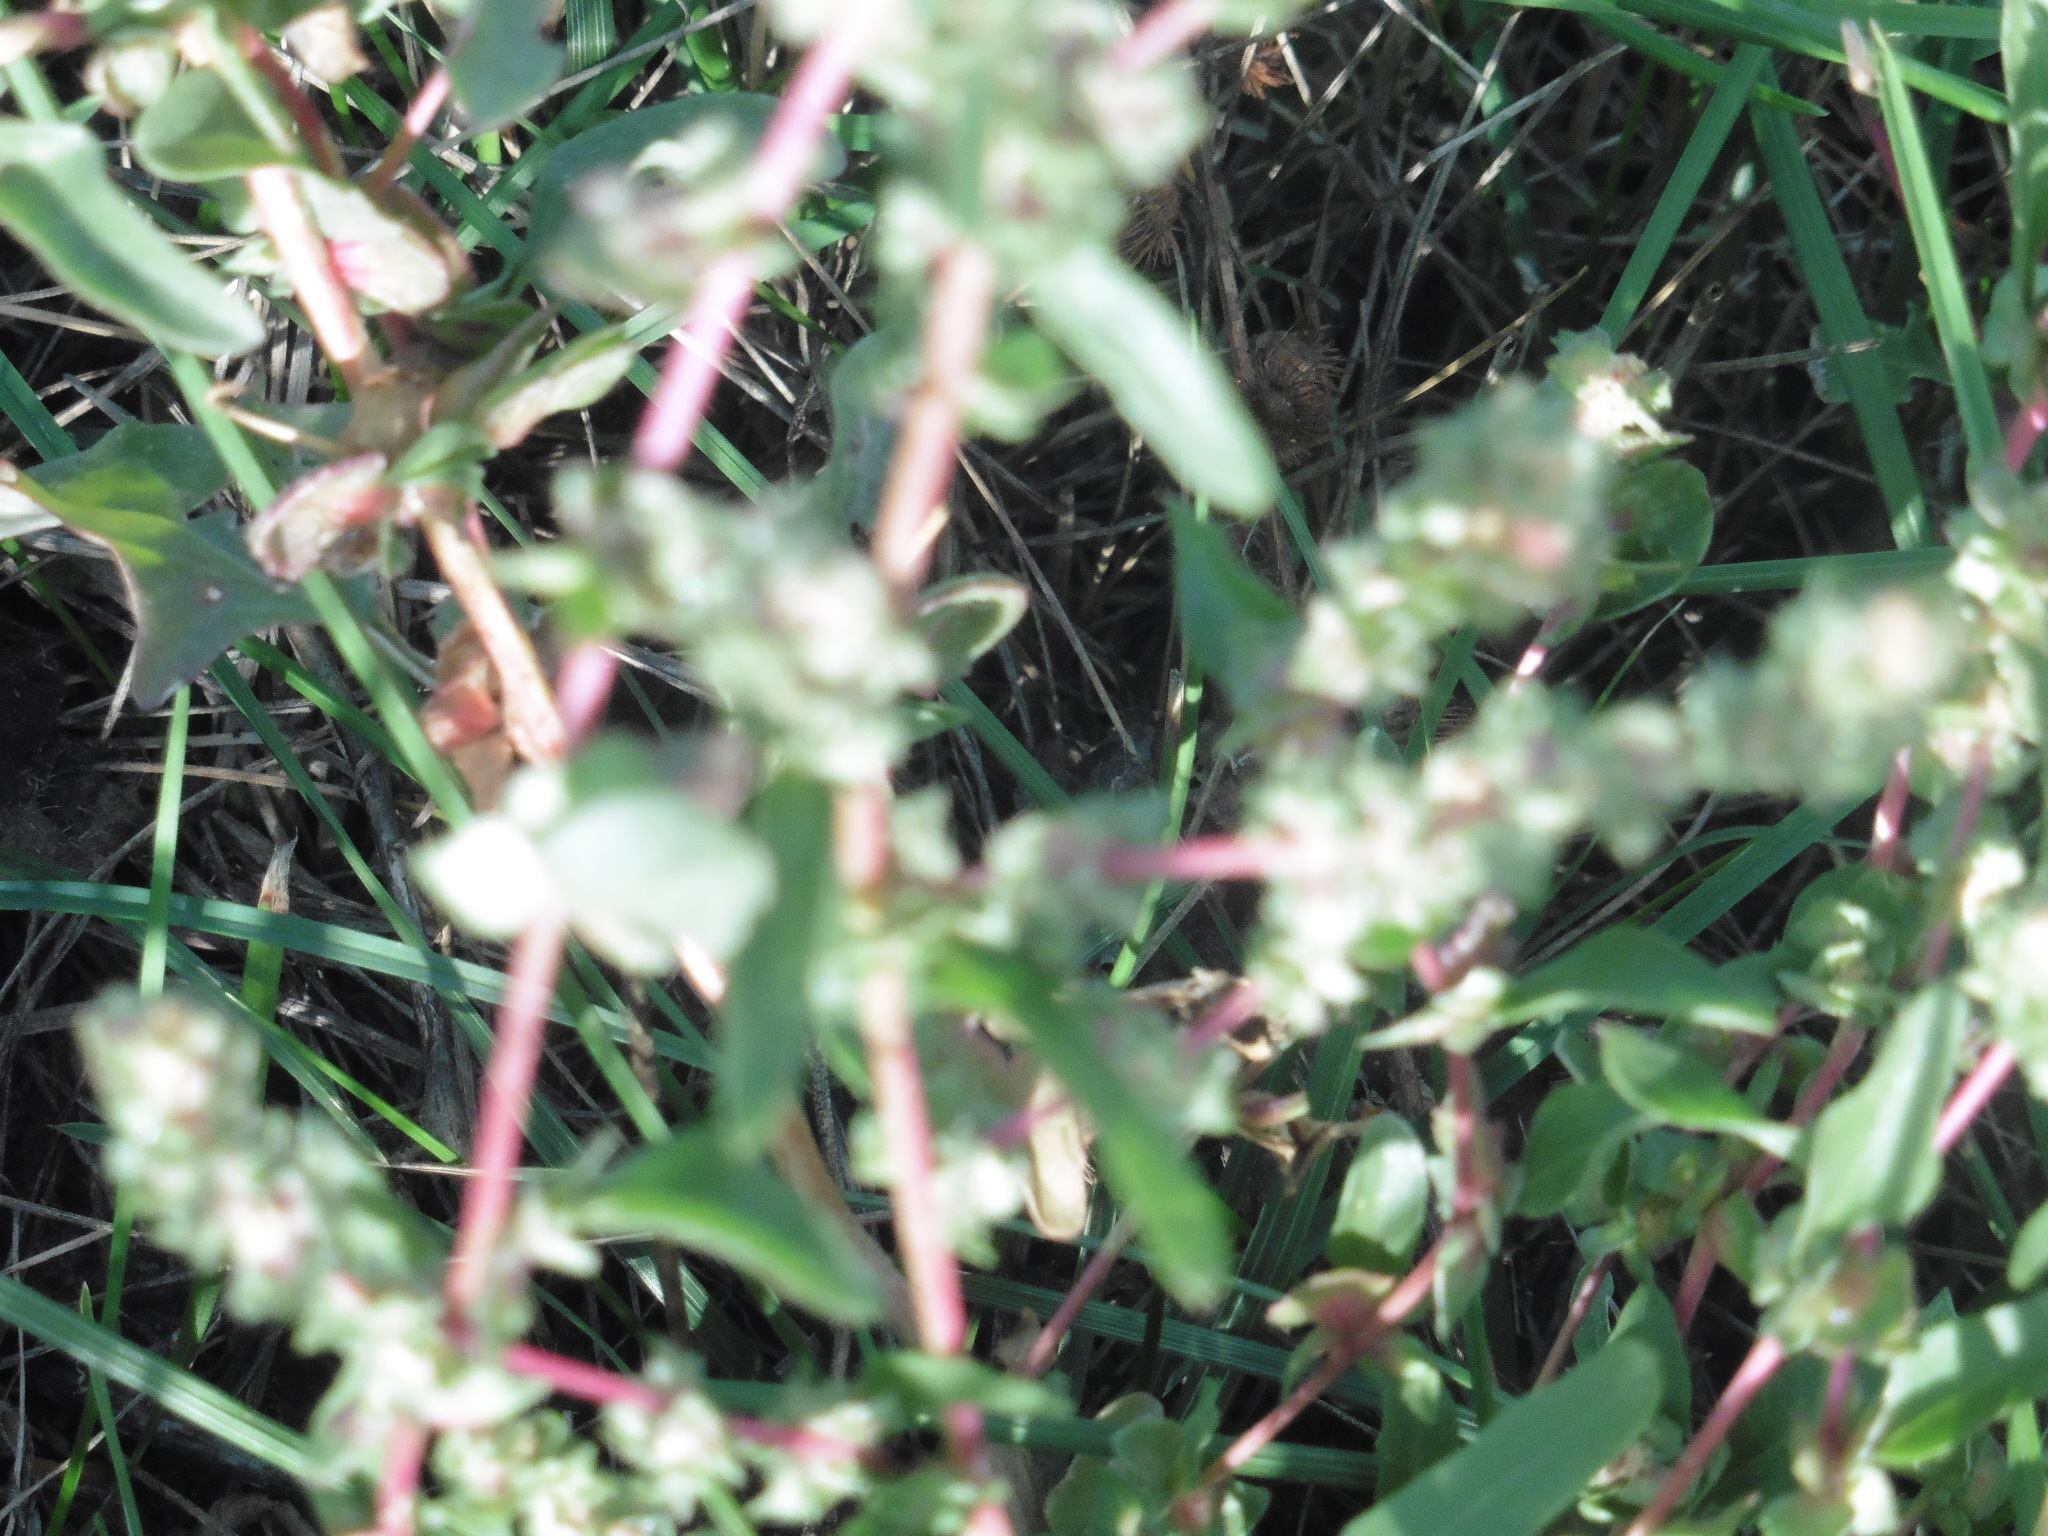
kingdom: Plantae
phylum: Tracheophyta
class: Magnoliopsida
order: Caryophyllales
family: Amaranthaceae
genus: Atriplex
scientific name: Atriplex tatarica
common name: Tatarian orache
